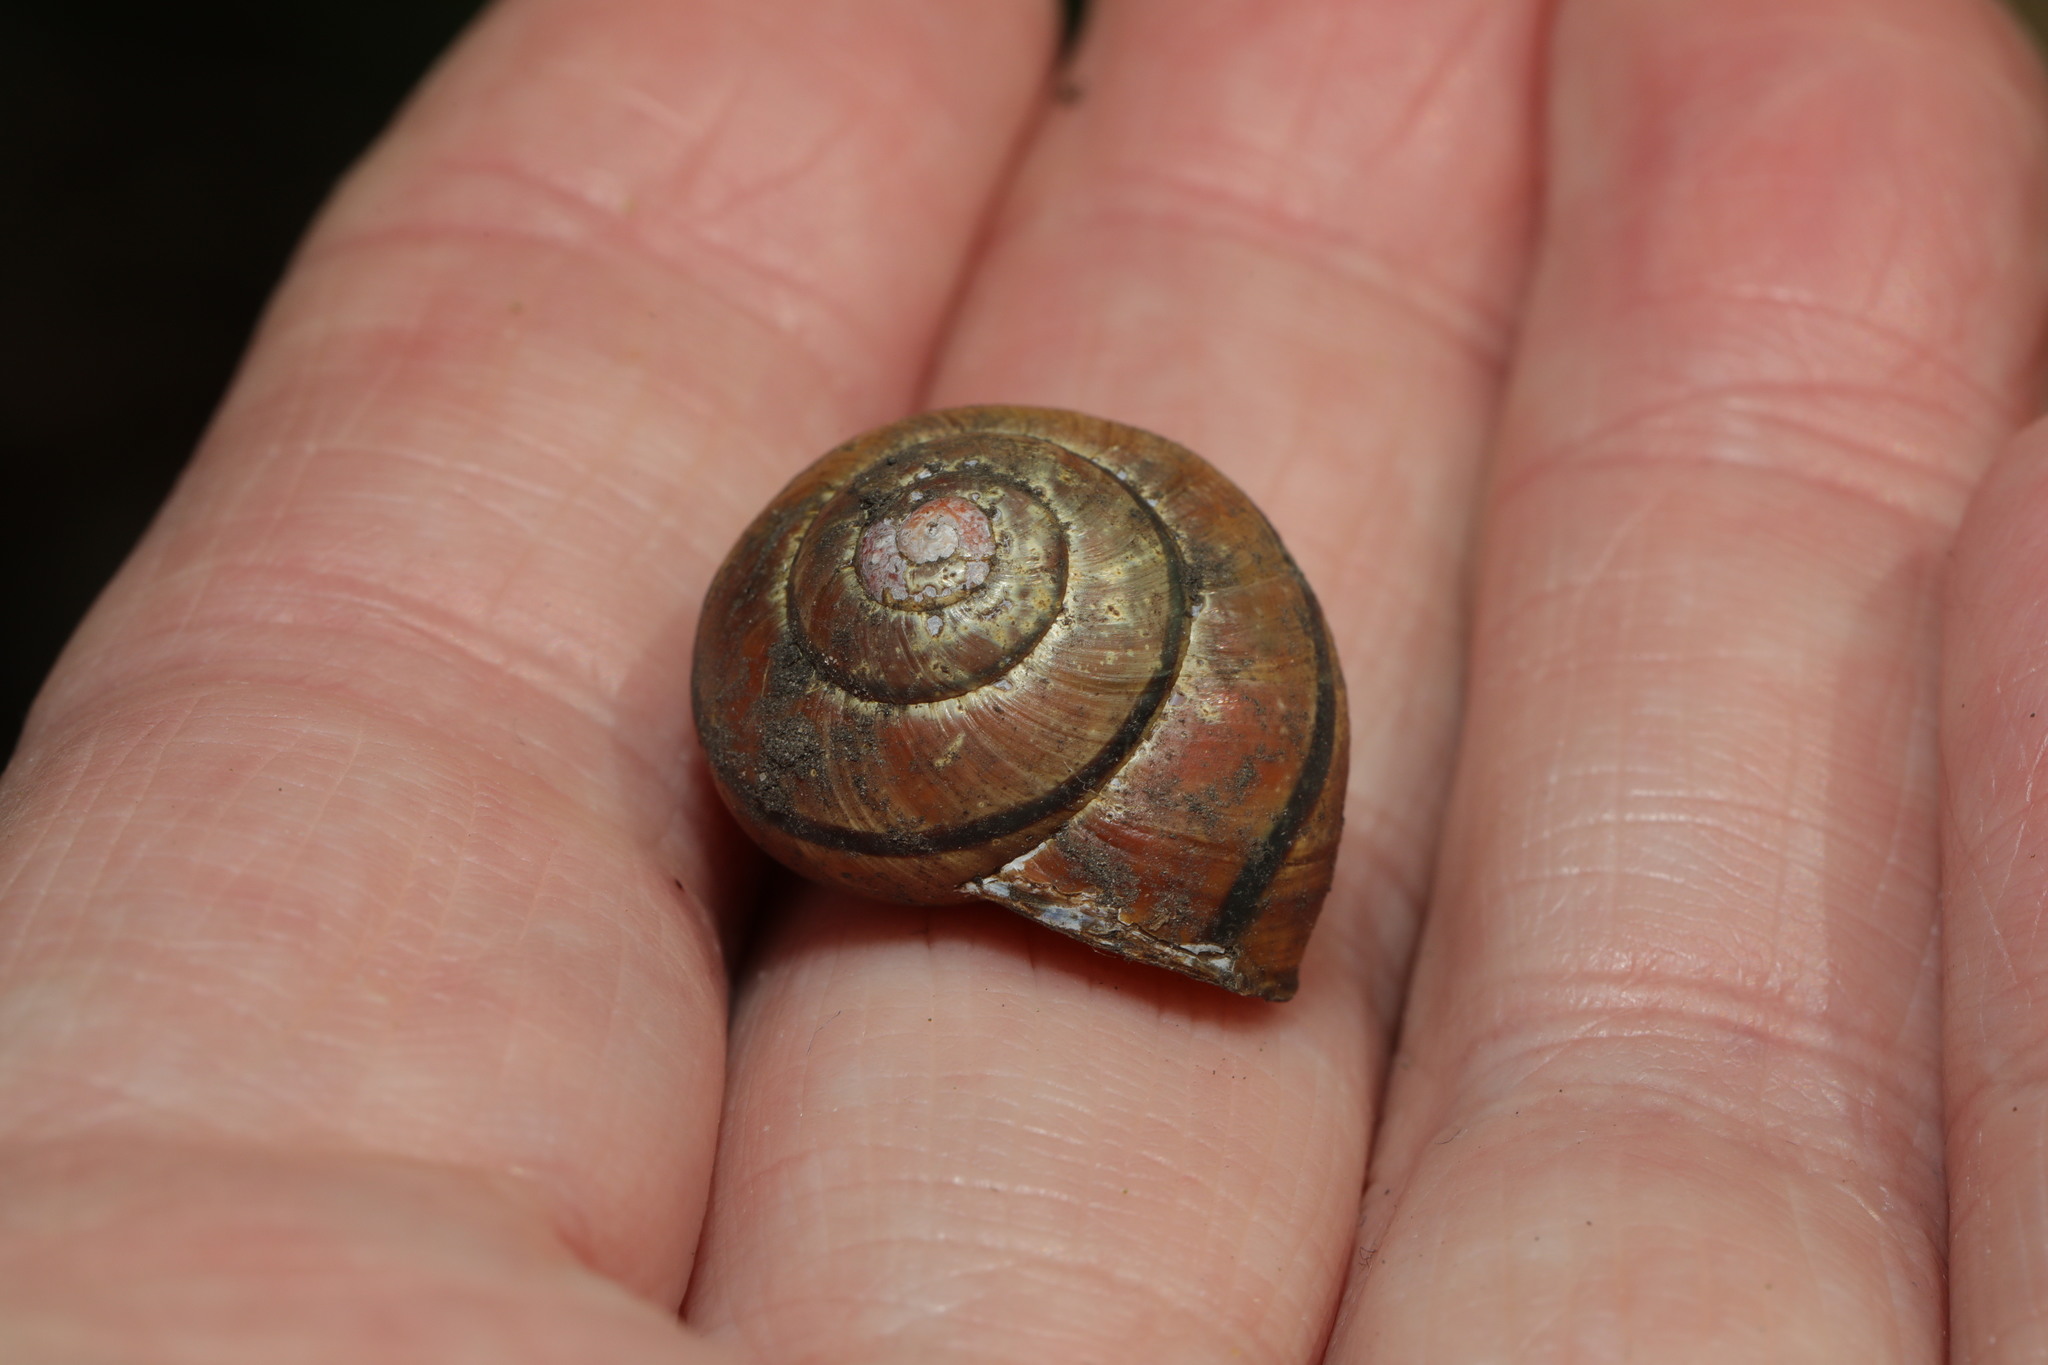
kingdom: Animalia
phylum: Mollusca
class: Gastropoda
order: Stylommatophora
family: Helicidae
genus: Cepaea
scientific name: Cepaea nemoralis
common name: Grovesnail
